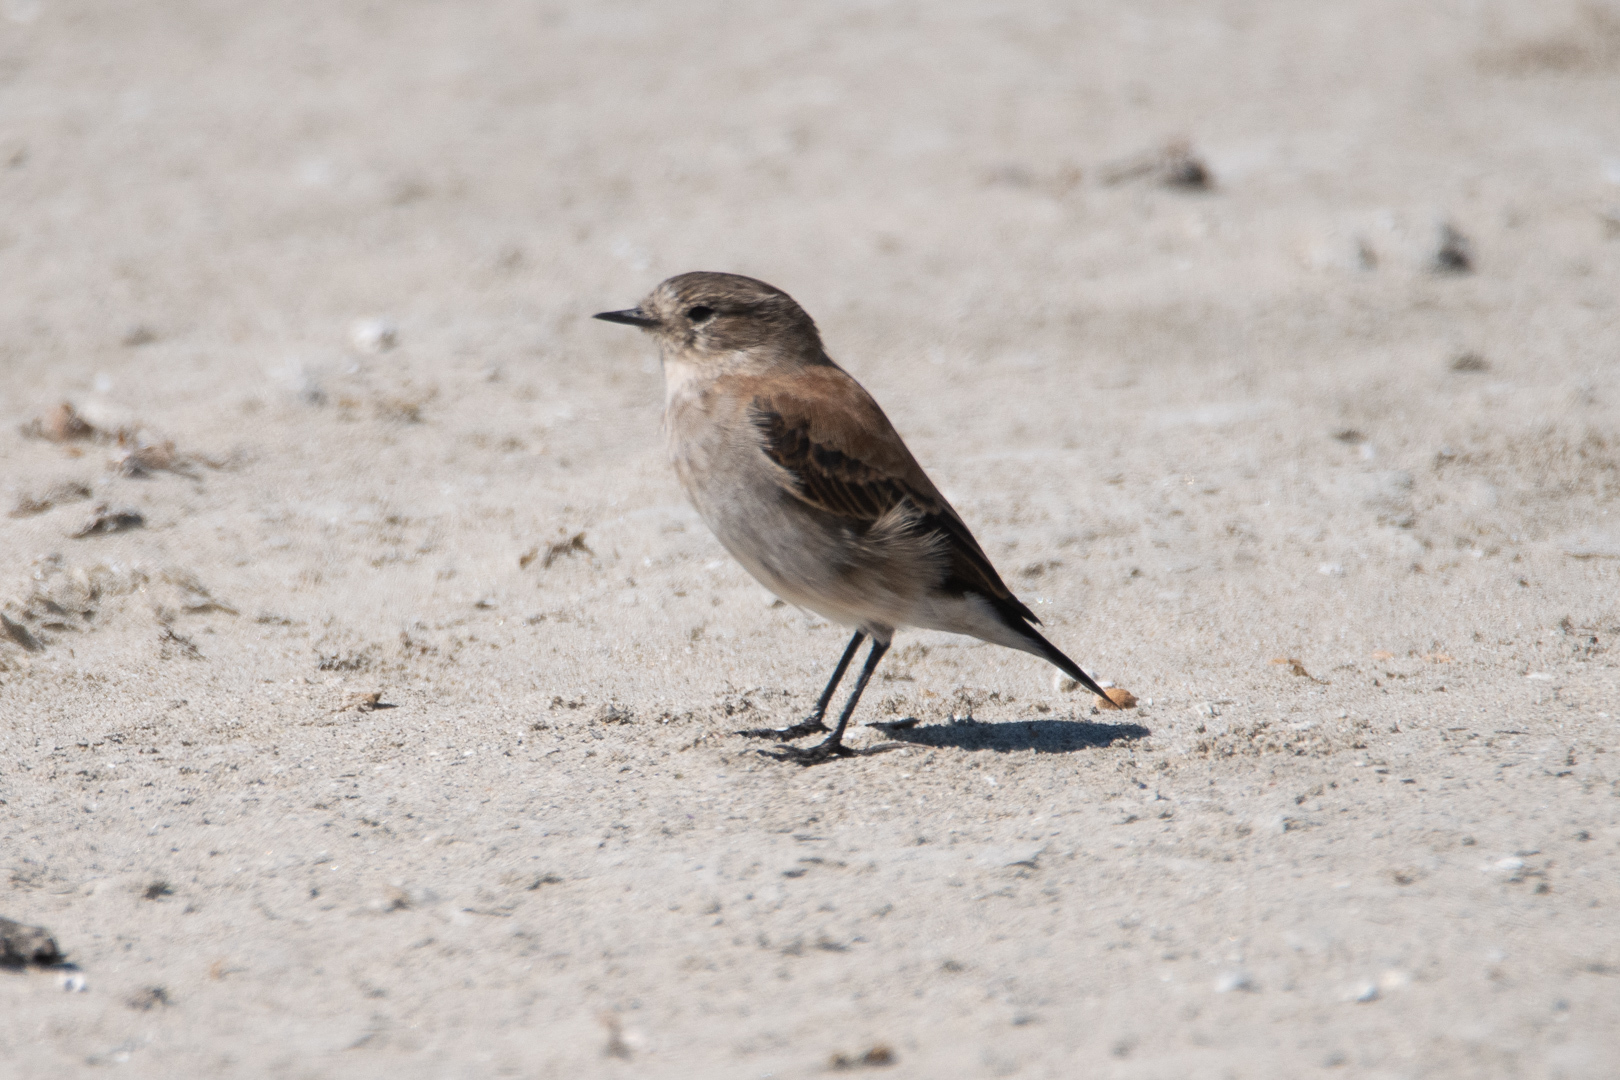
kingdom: Animalia
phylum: Chordata
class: Aves
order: Passeriformes
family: Tyrannidae
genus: Lessonia
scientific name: Lessonia rufa
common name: Austral negrito
